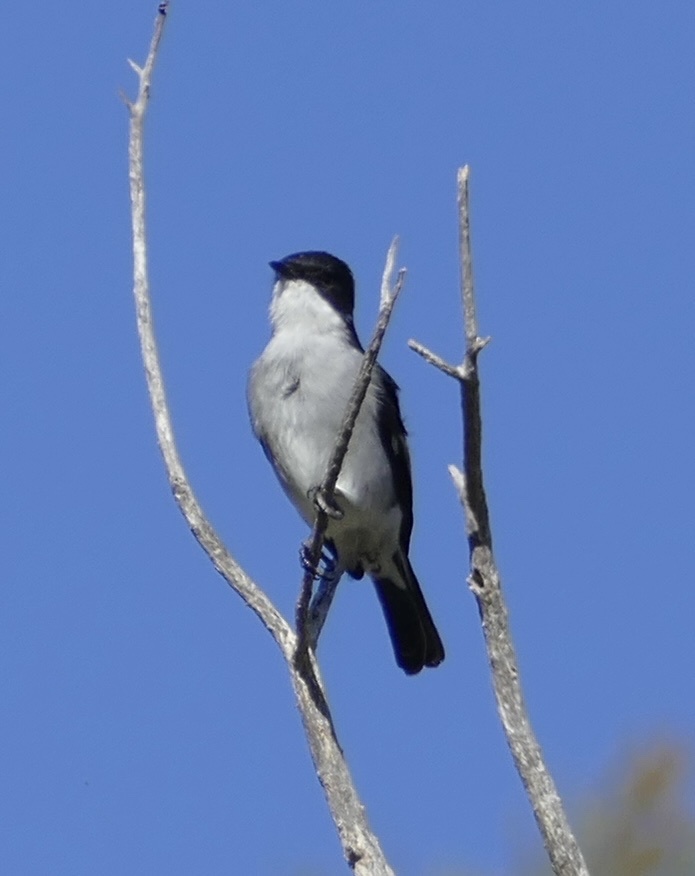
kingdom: Animalia
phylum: Chordata
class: Aves
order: Passeriformes
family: Muscicapidae
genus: Sigelus
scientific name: Sigelus silens
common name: Fiscal flycatcher
